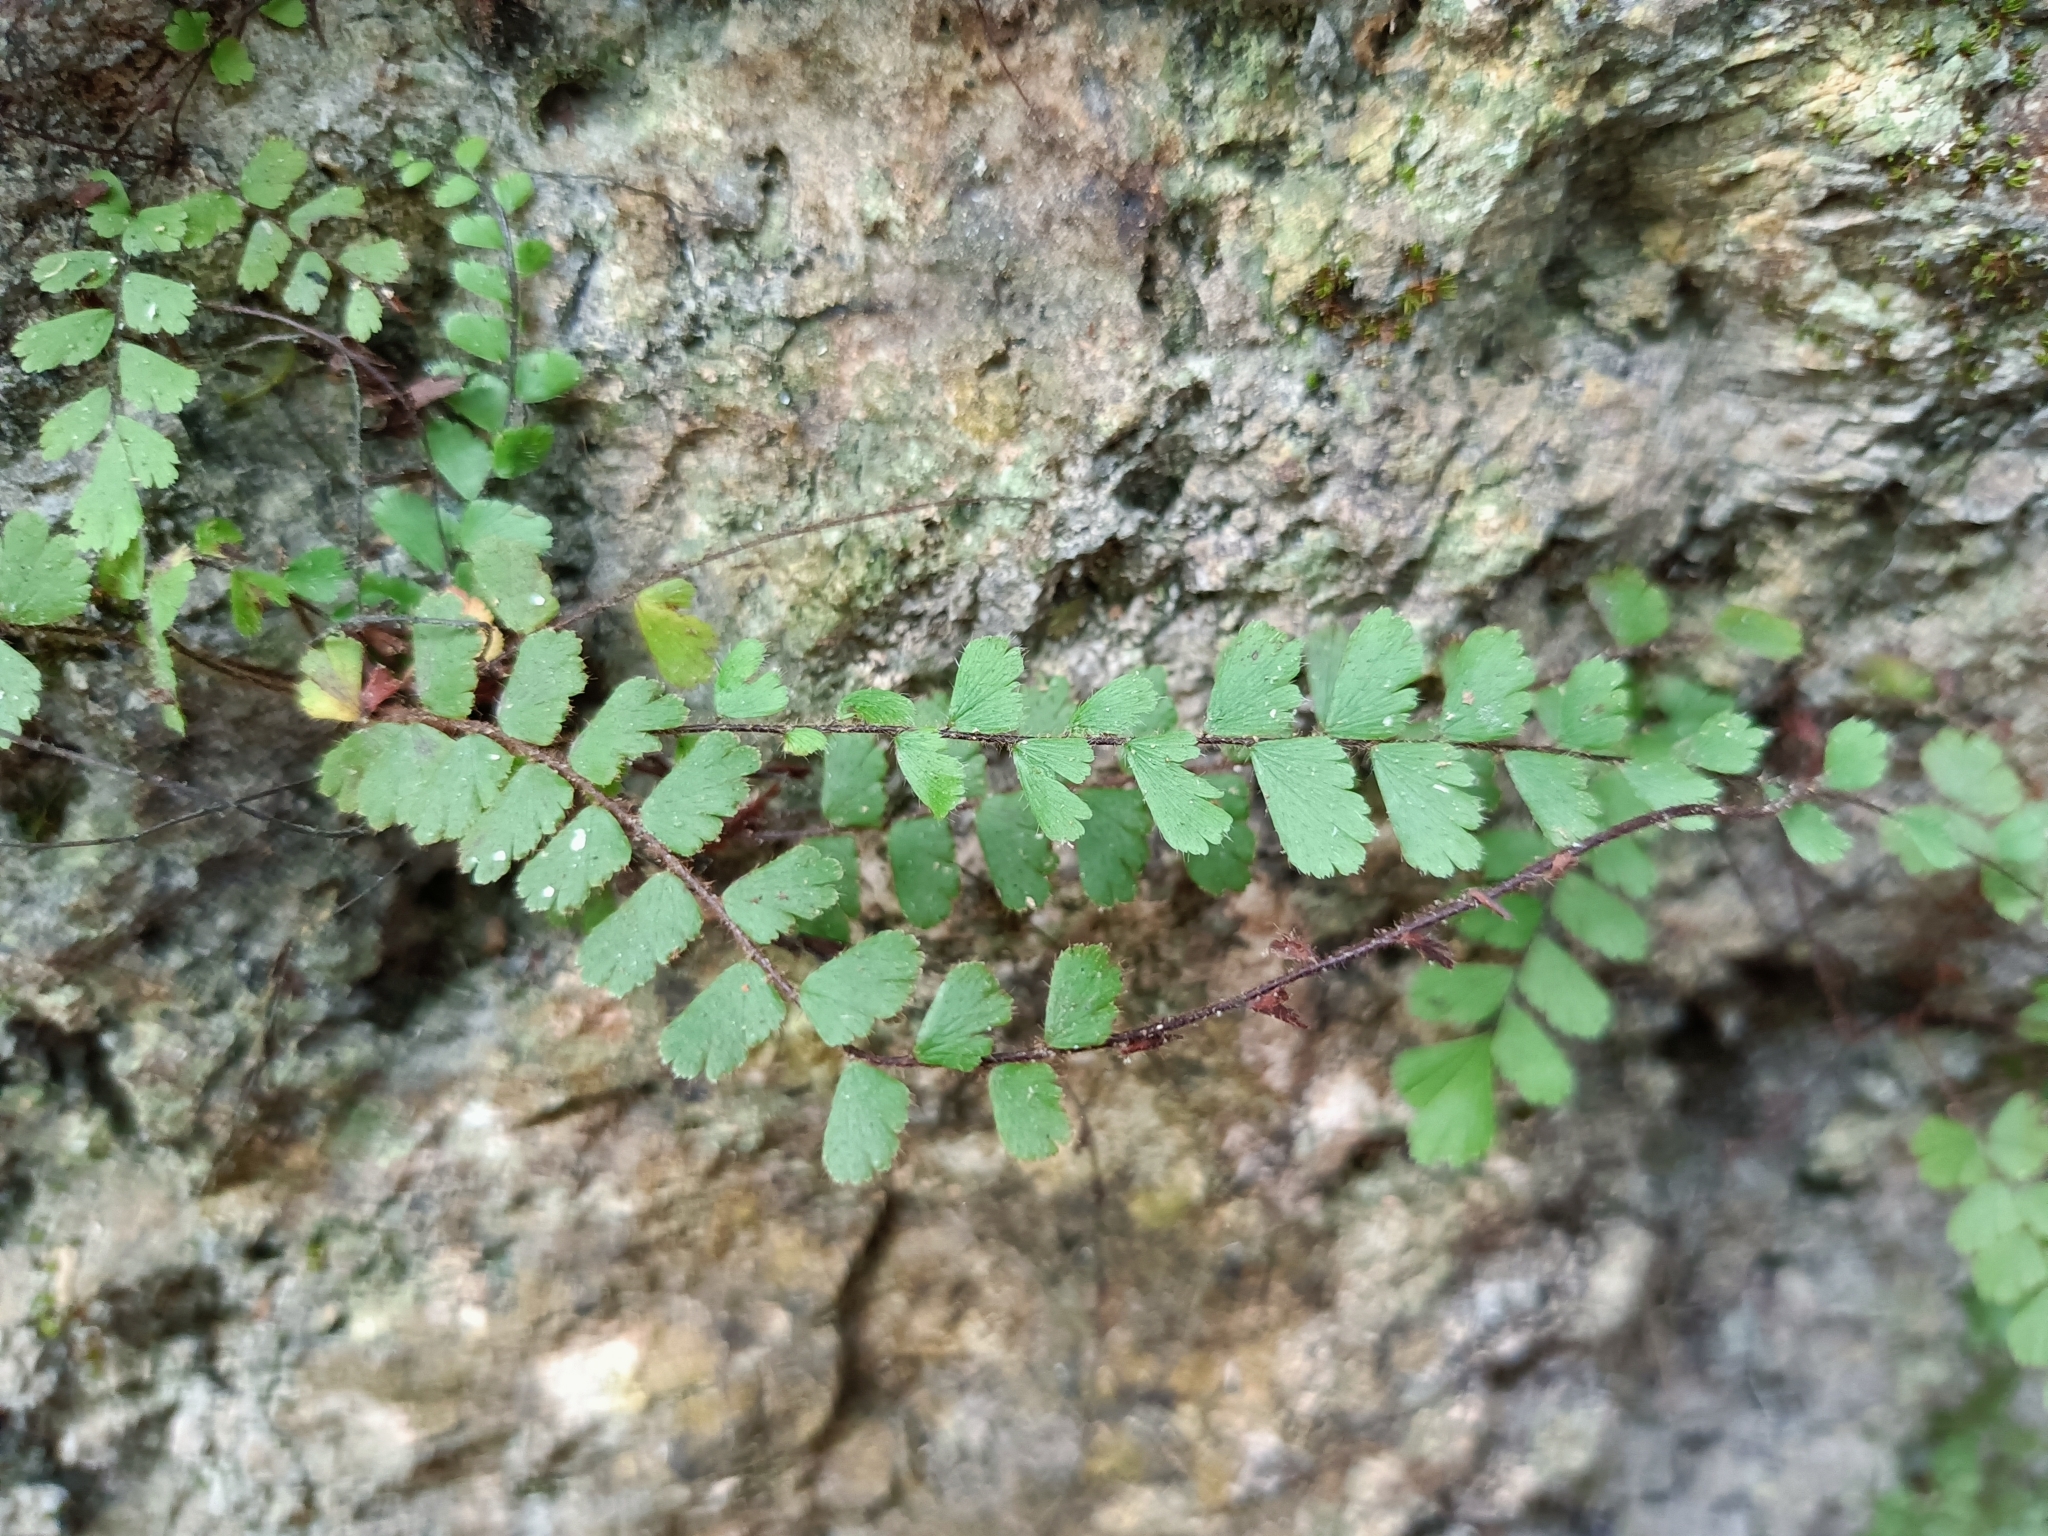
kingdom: Plantae
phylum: Tracheophyta
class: Polypodiopsida
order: Polypodiales
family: Pteridaceae
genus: Adiantum
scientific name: Adiantum capillus-veneris
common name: Maidenhair fern
